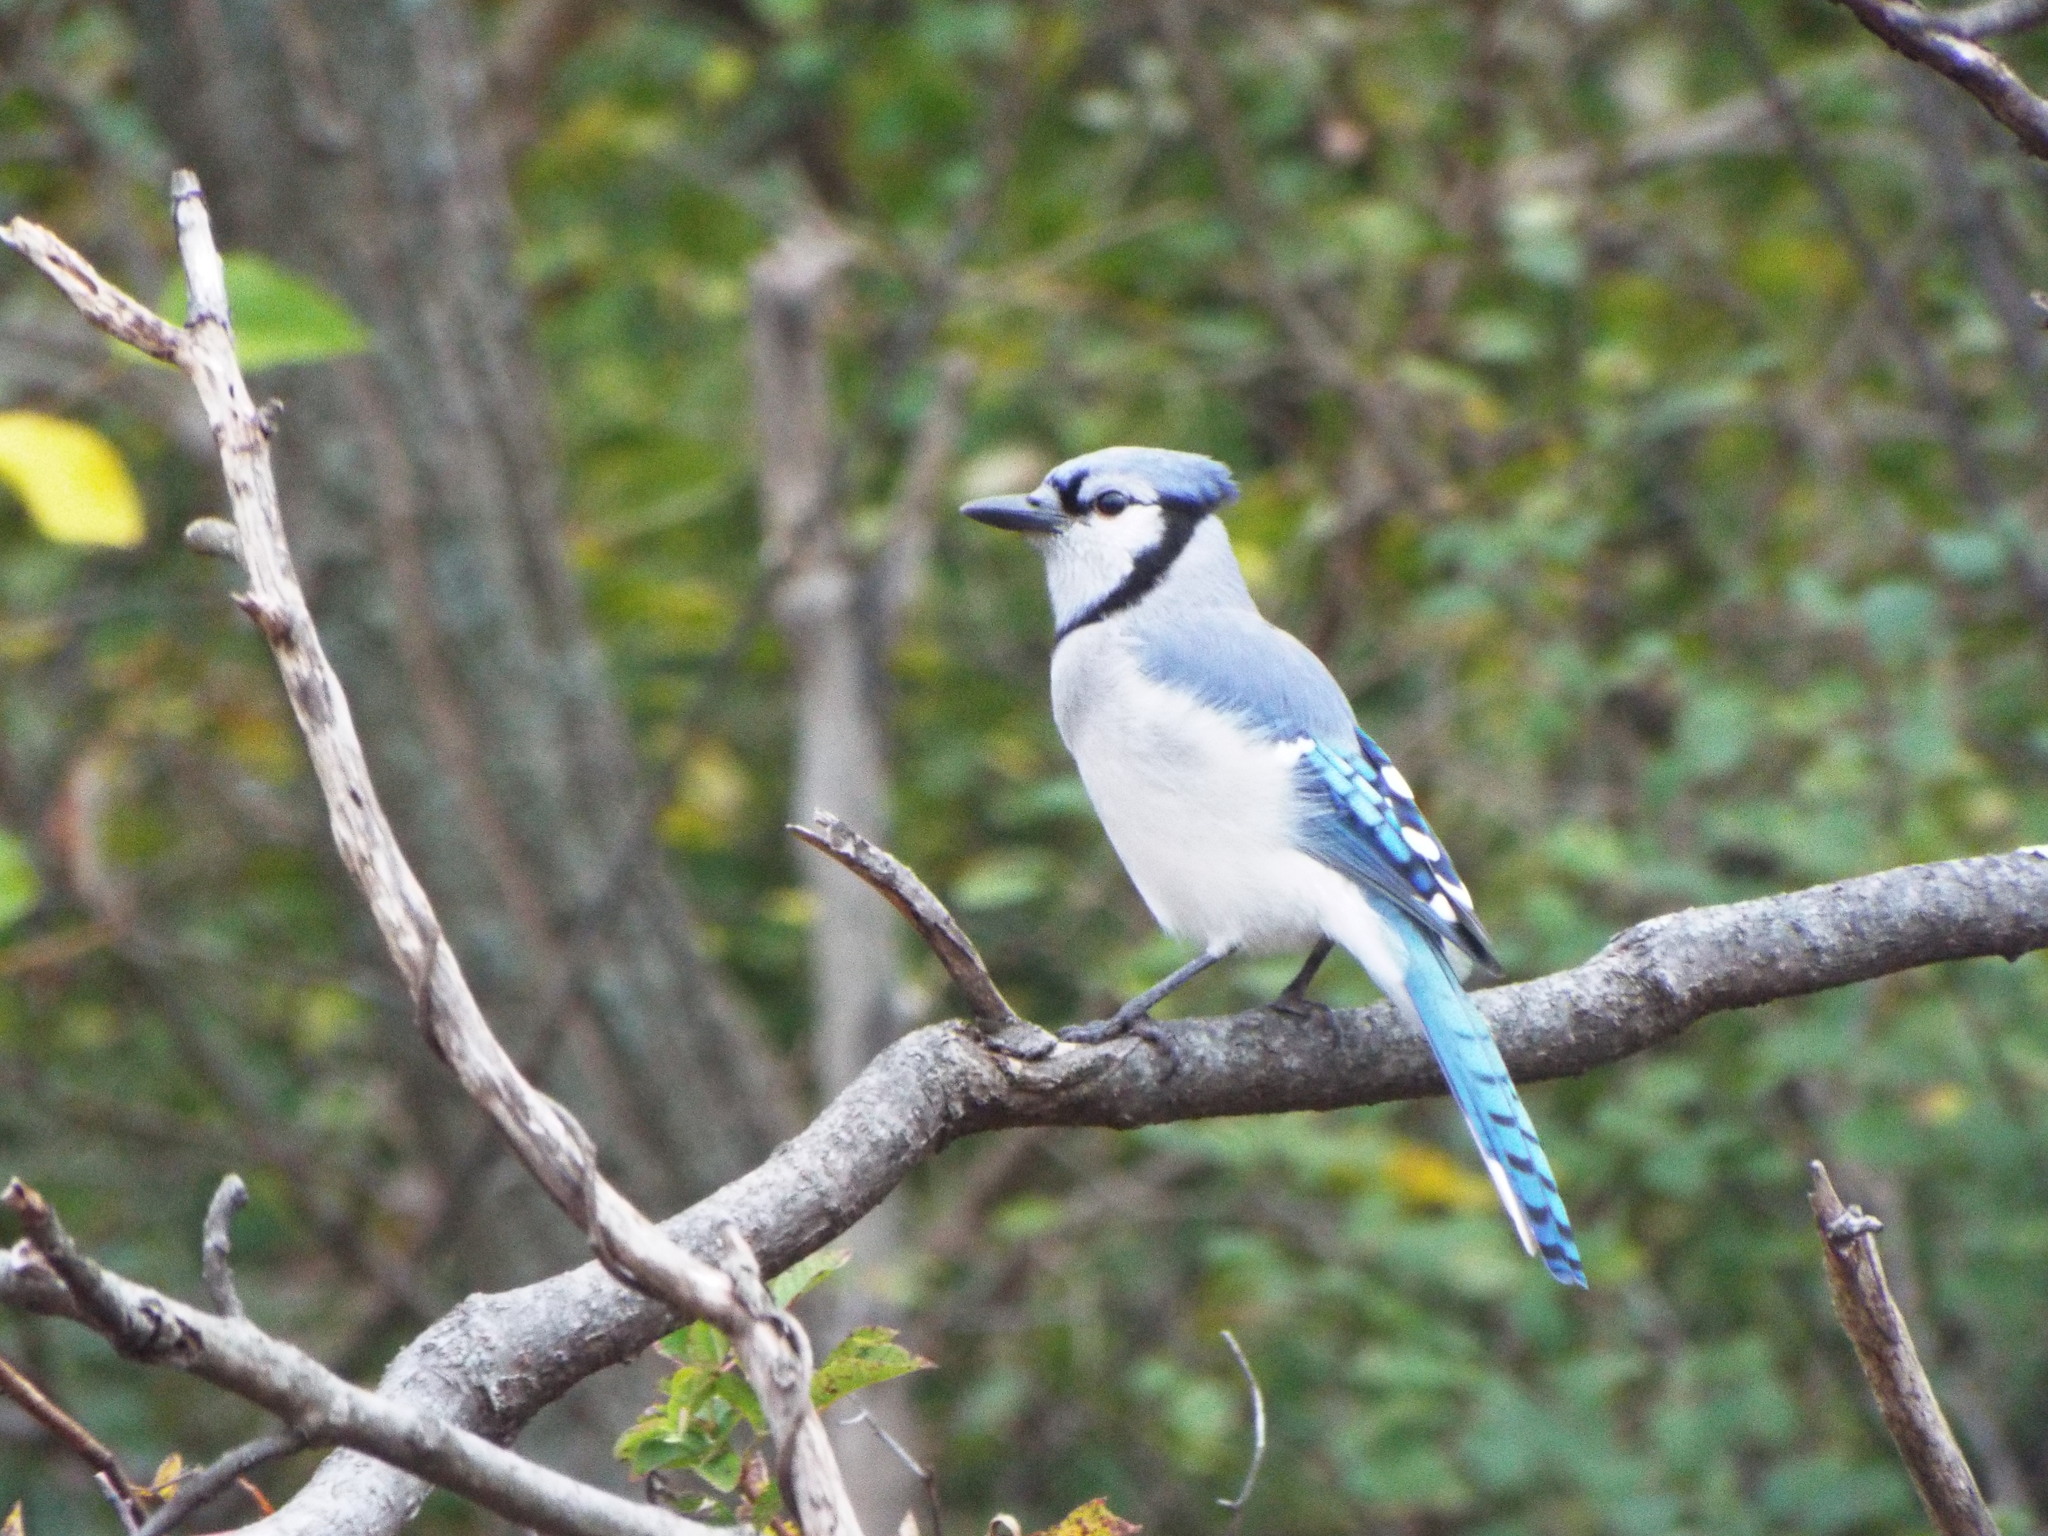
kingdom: Animalia
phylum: Chordata
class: Aves
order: Passeriformes
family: Corvidae
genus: Cyanocitta
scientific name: Cyanocitta cristata
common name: Blue jay
